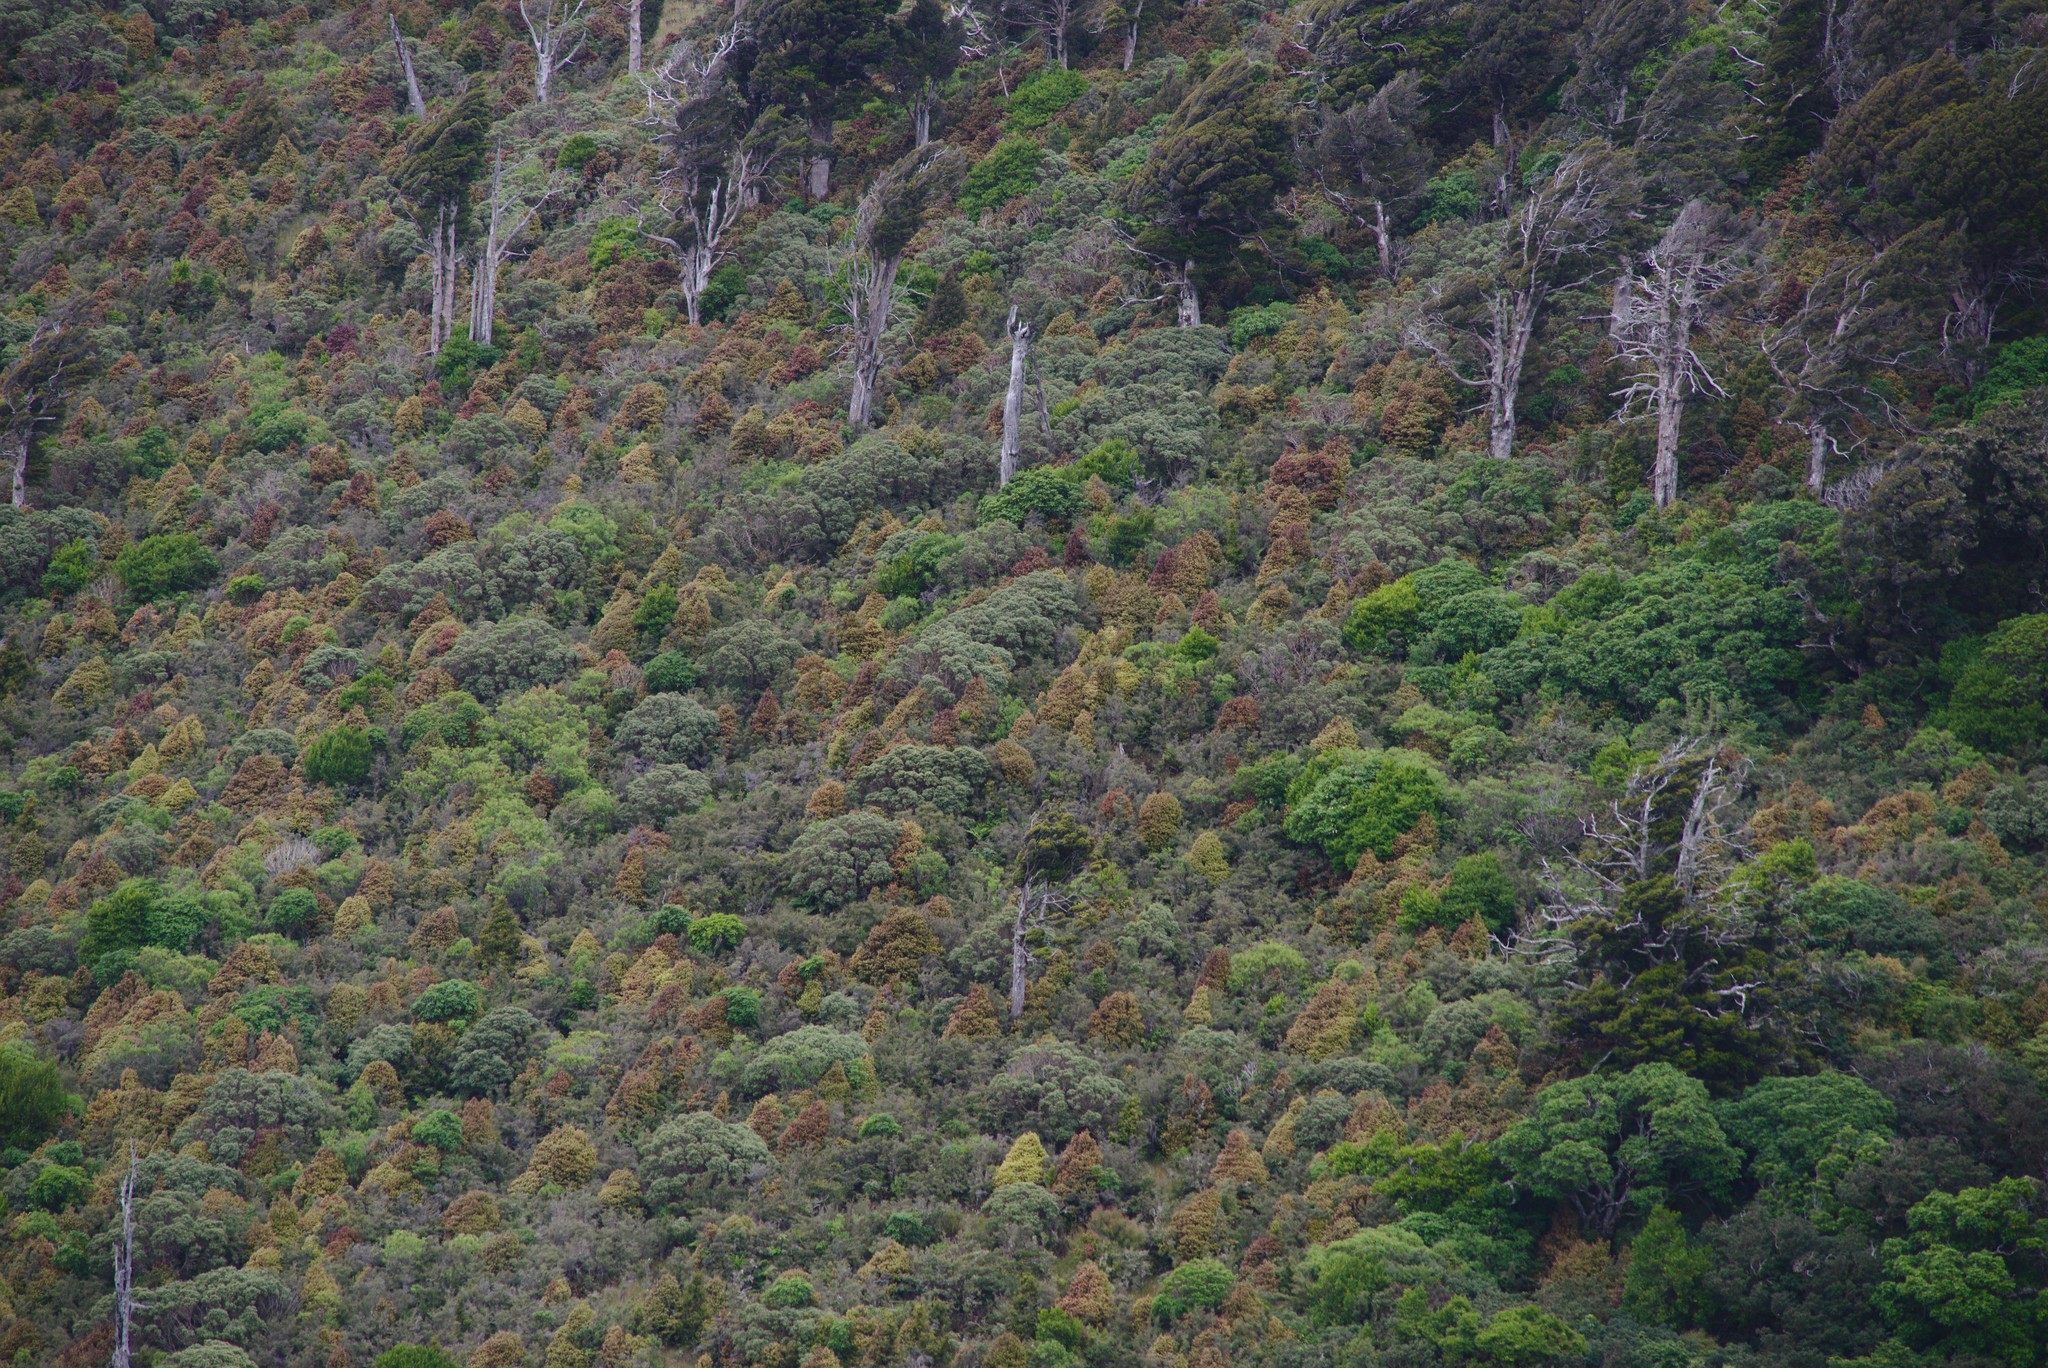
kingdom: Plantae
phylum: Tracheophyta
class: Magnoliopsida
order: Canellales
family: Winteraceae
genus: Pseudowintera
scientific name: Pseudowintera colorata
